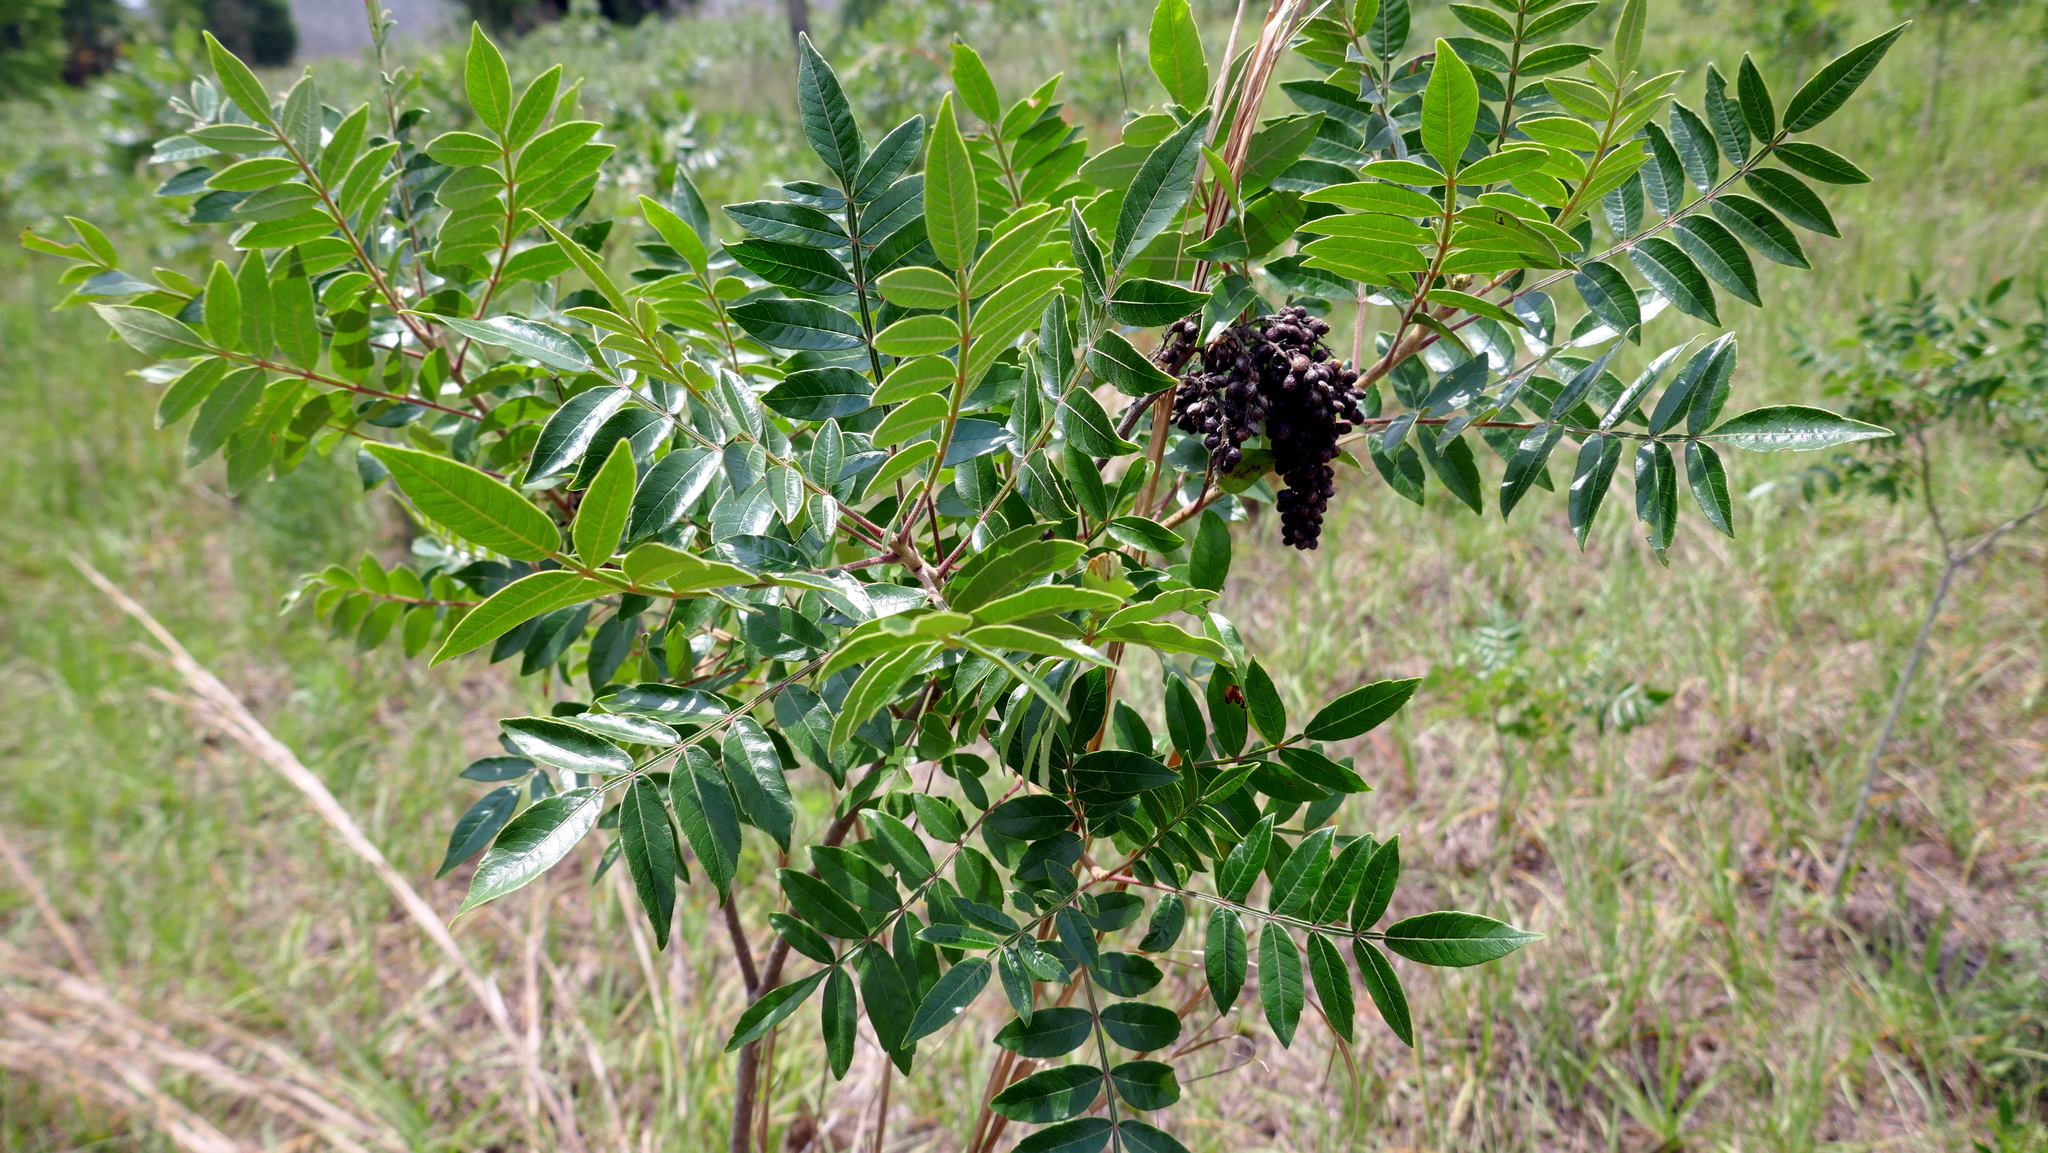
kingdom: Plantae
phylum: Tracheophyta
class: Magnoliopsida
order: Sapindales
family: Anacardiaceae
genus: Rhus
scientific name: Rhus copallina
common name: Shining sumac
